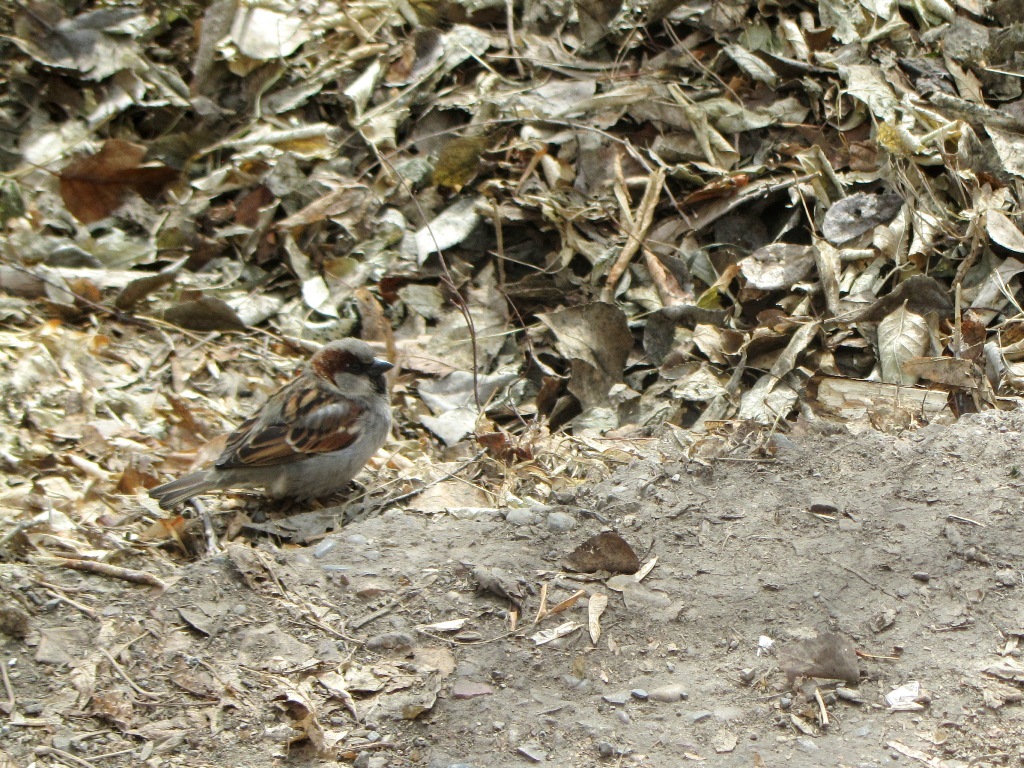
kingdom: Animalia
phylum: Chordata
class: Aves
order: Passeriformes
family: Passeridae
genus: Passer
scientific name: Passer domesticus
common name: House sparrow
